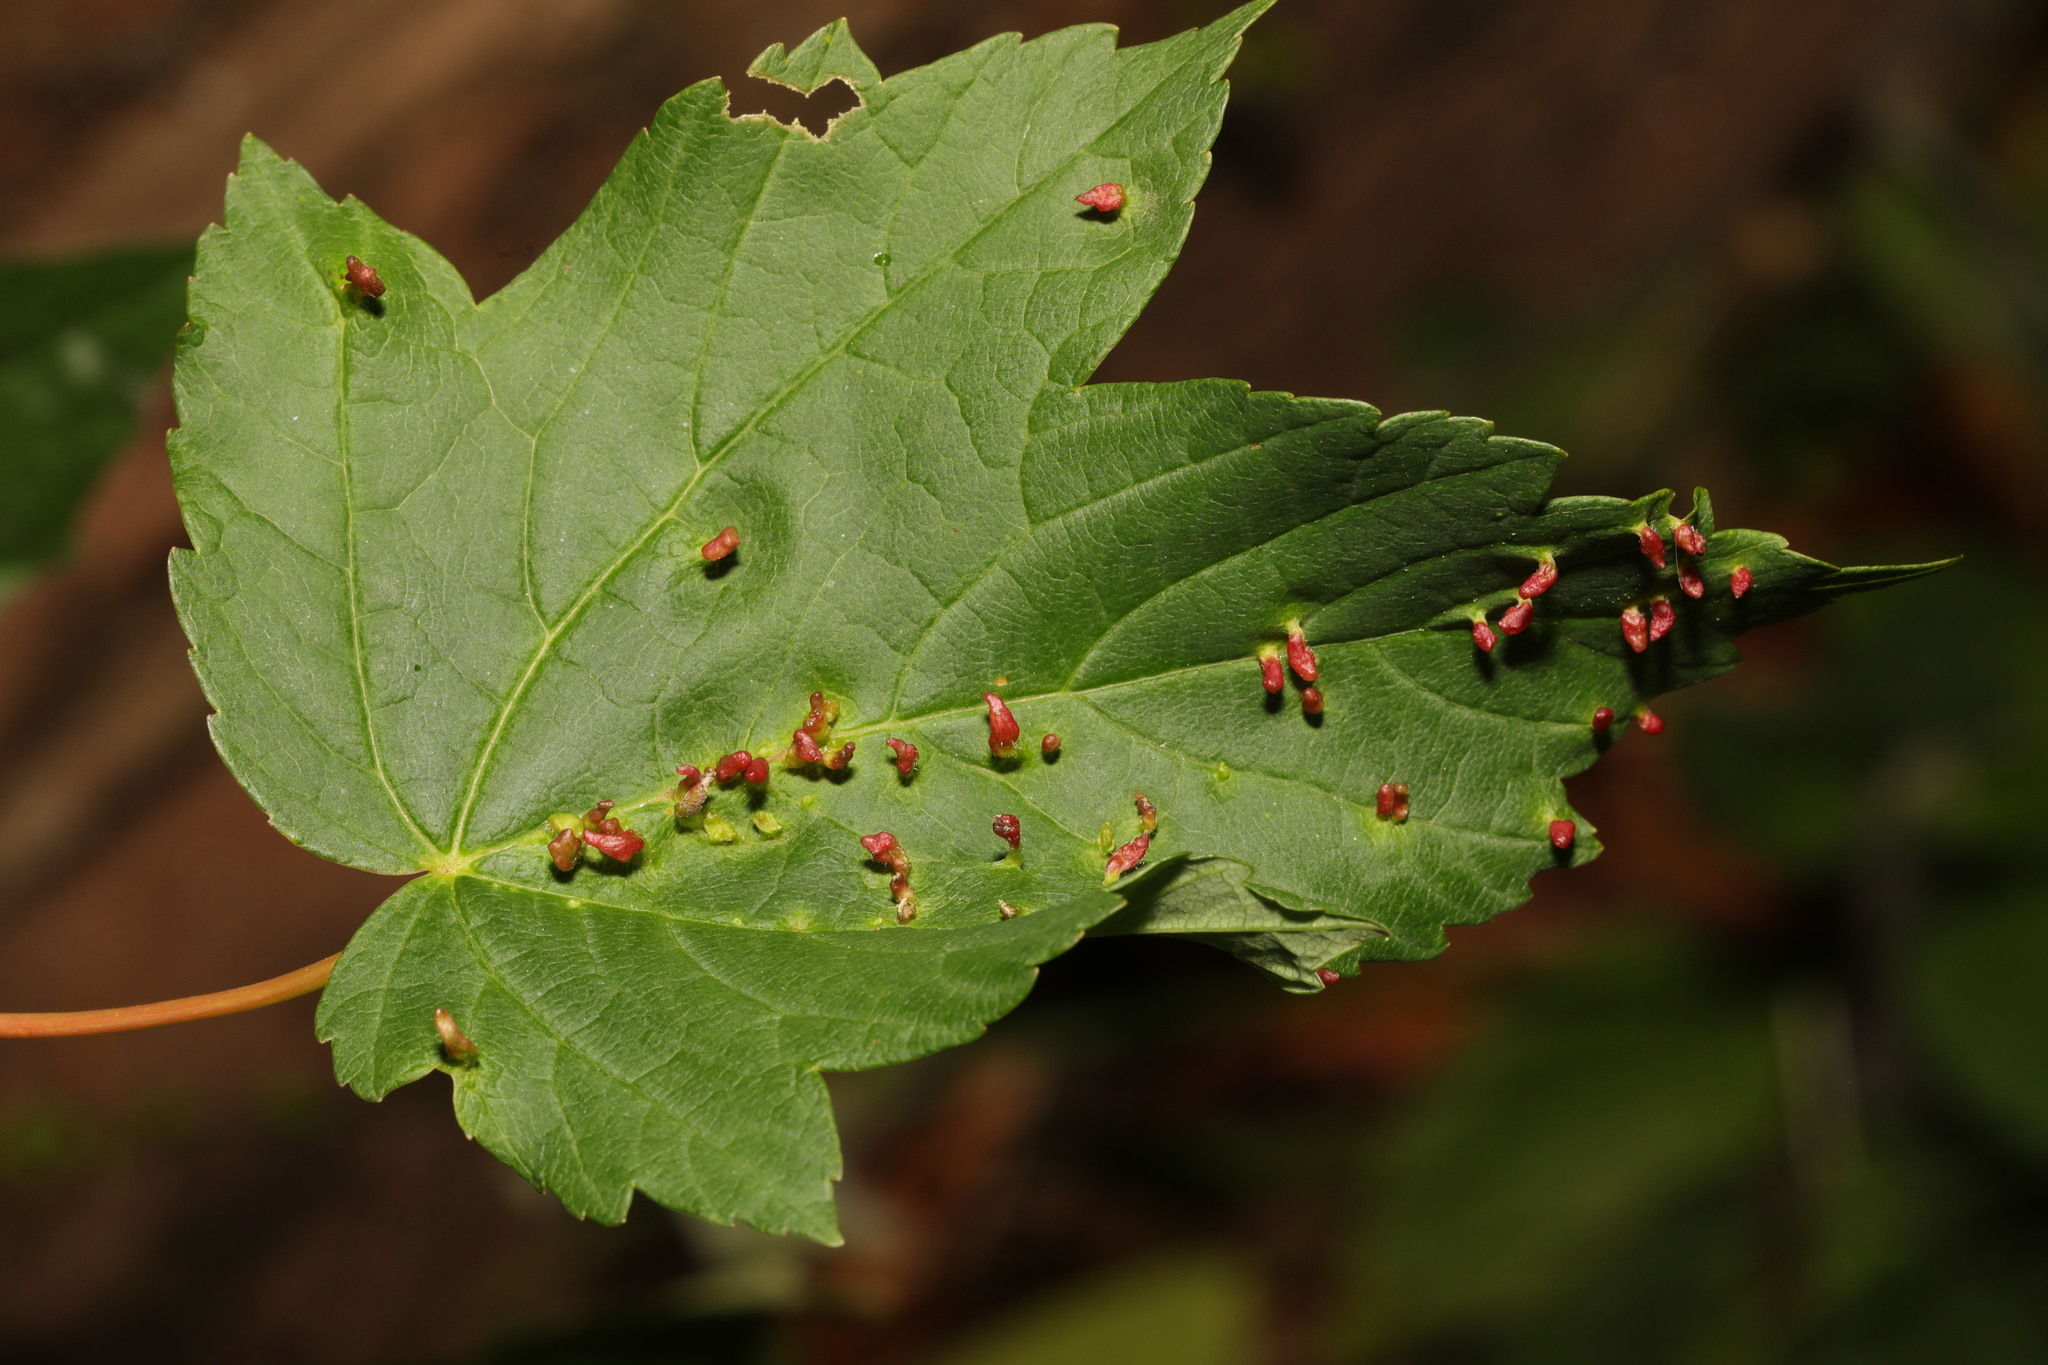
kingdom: Plantae
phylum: Tracheophyta
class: Magnoliopsida
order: Sapindales
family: Sapindaceae
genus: Acer
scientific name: Acer pseudoplatanus
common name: Sycamore
